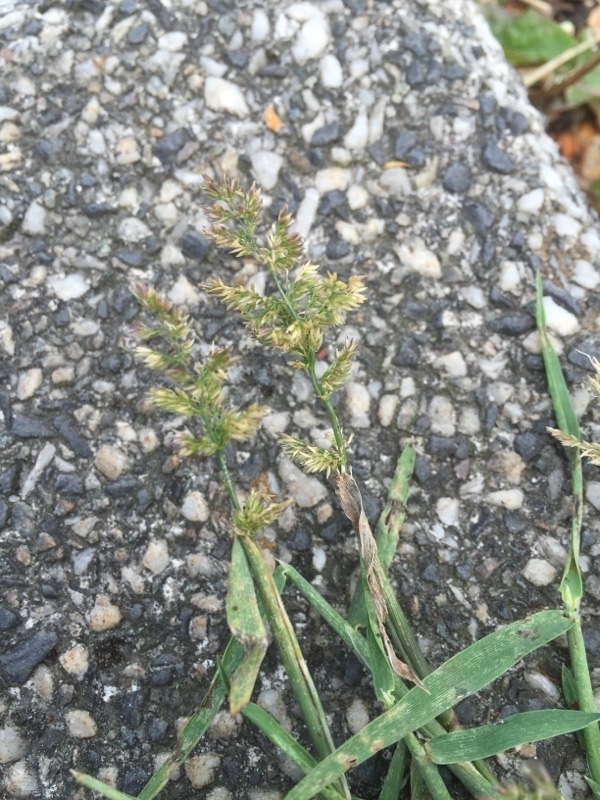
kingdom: Plantae
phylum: Tracheophyta
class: Liliopsida
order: Poales
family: Poaceae
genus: Polypogon
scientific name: Polypogon viridis
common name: Water bent
